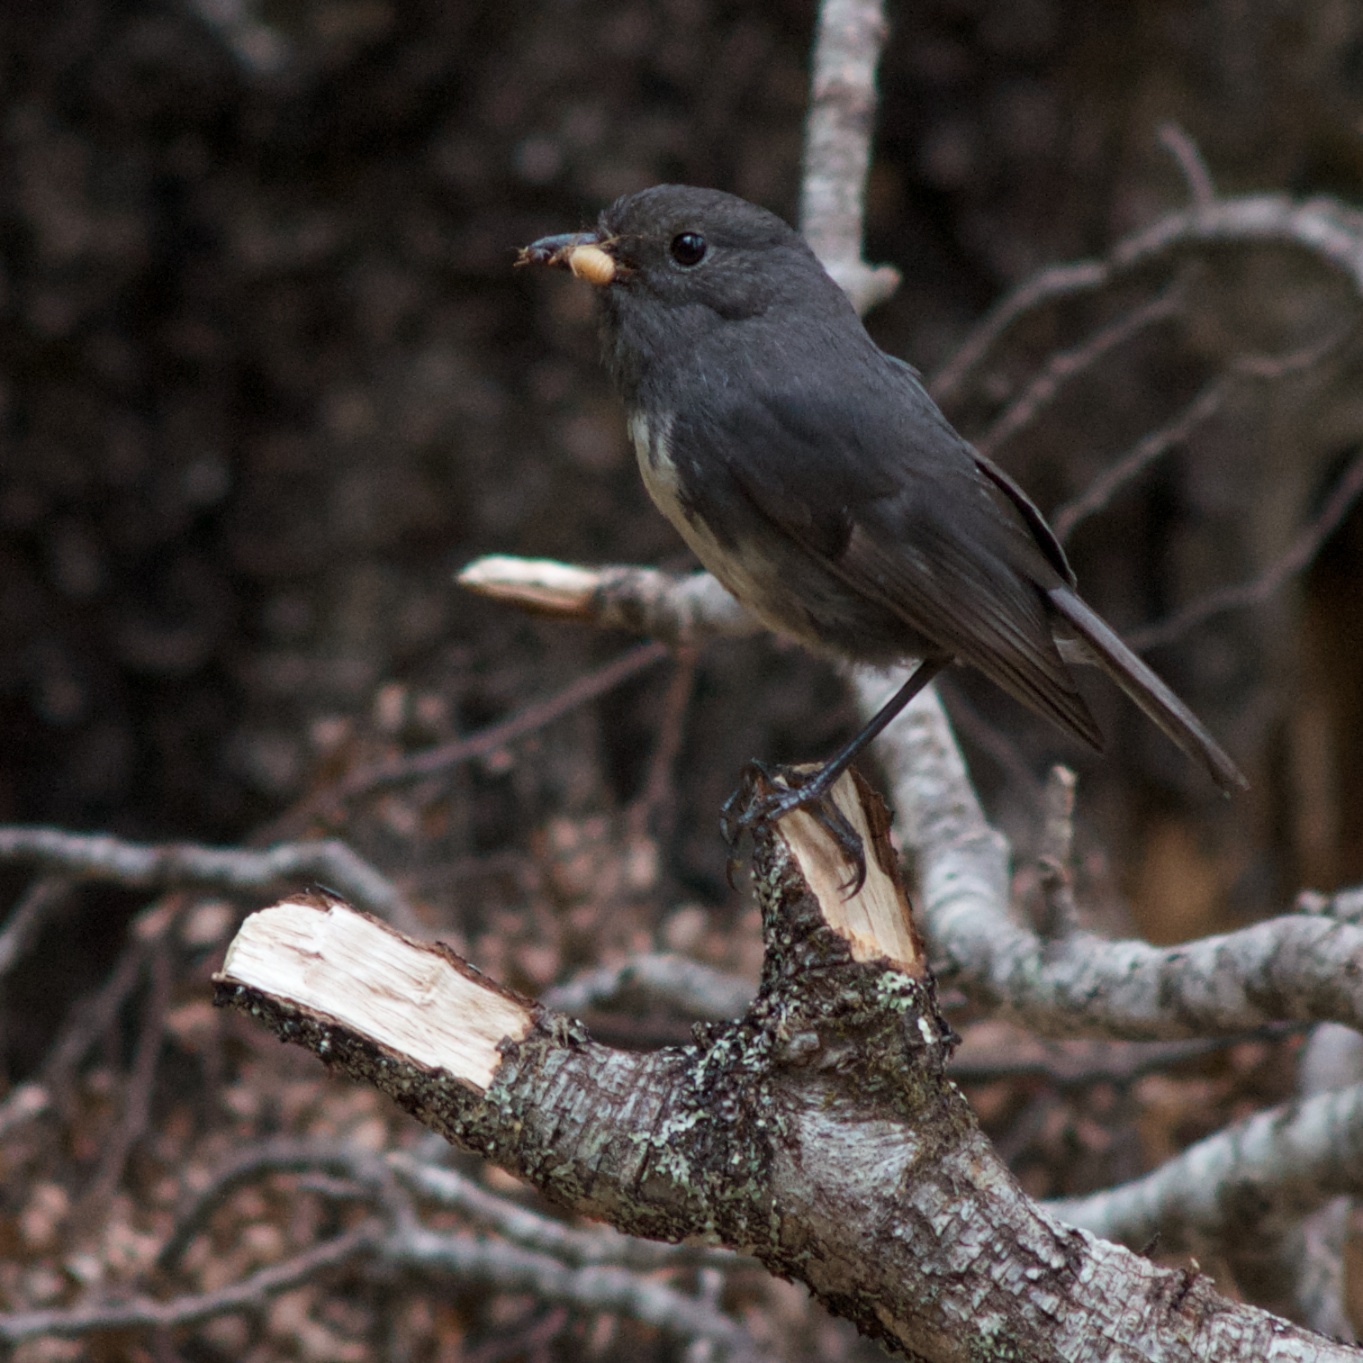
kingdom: Animalia
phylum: Chordata
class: Aves
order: Passeriformes
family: Petroicidae
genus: Petroica
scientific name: Petroica australis
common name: New zealand robin
